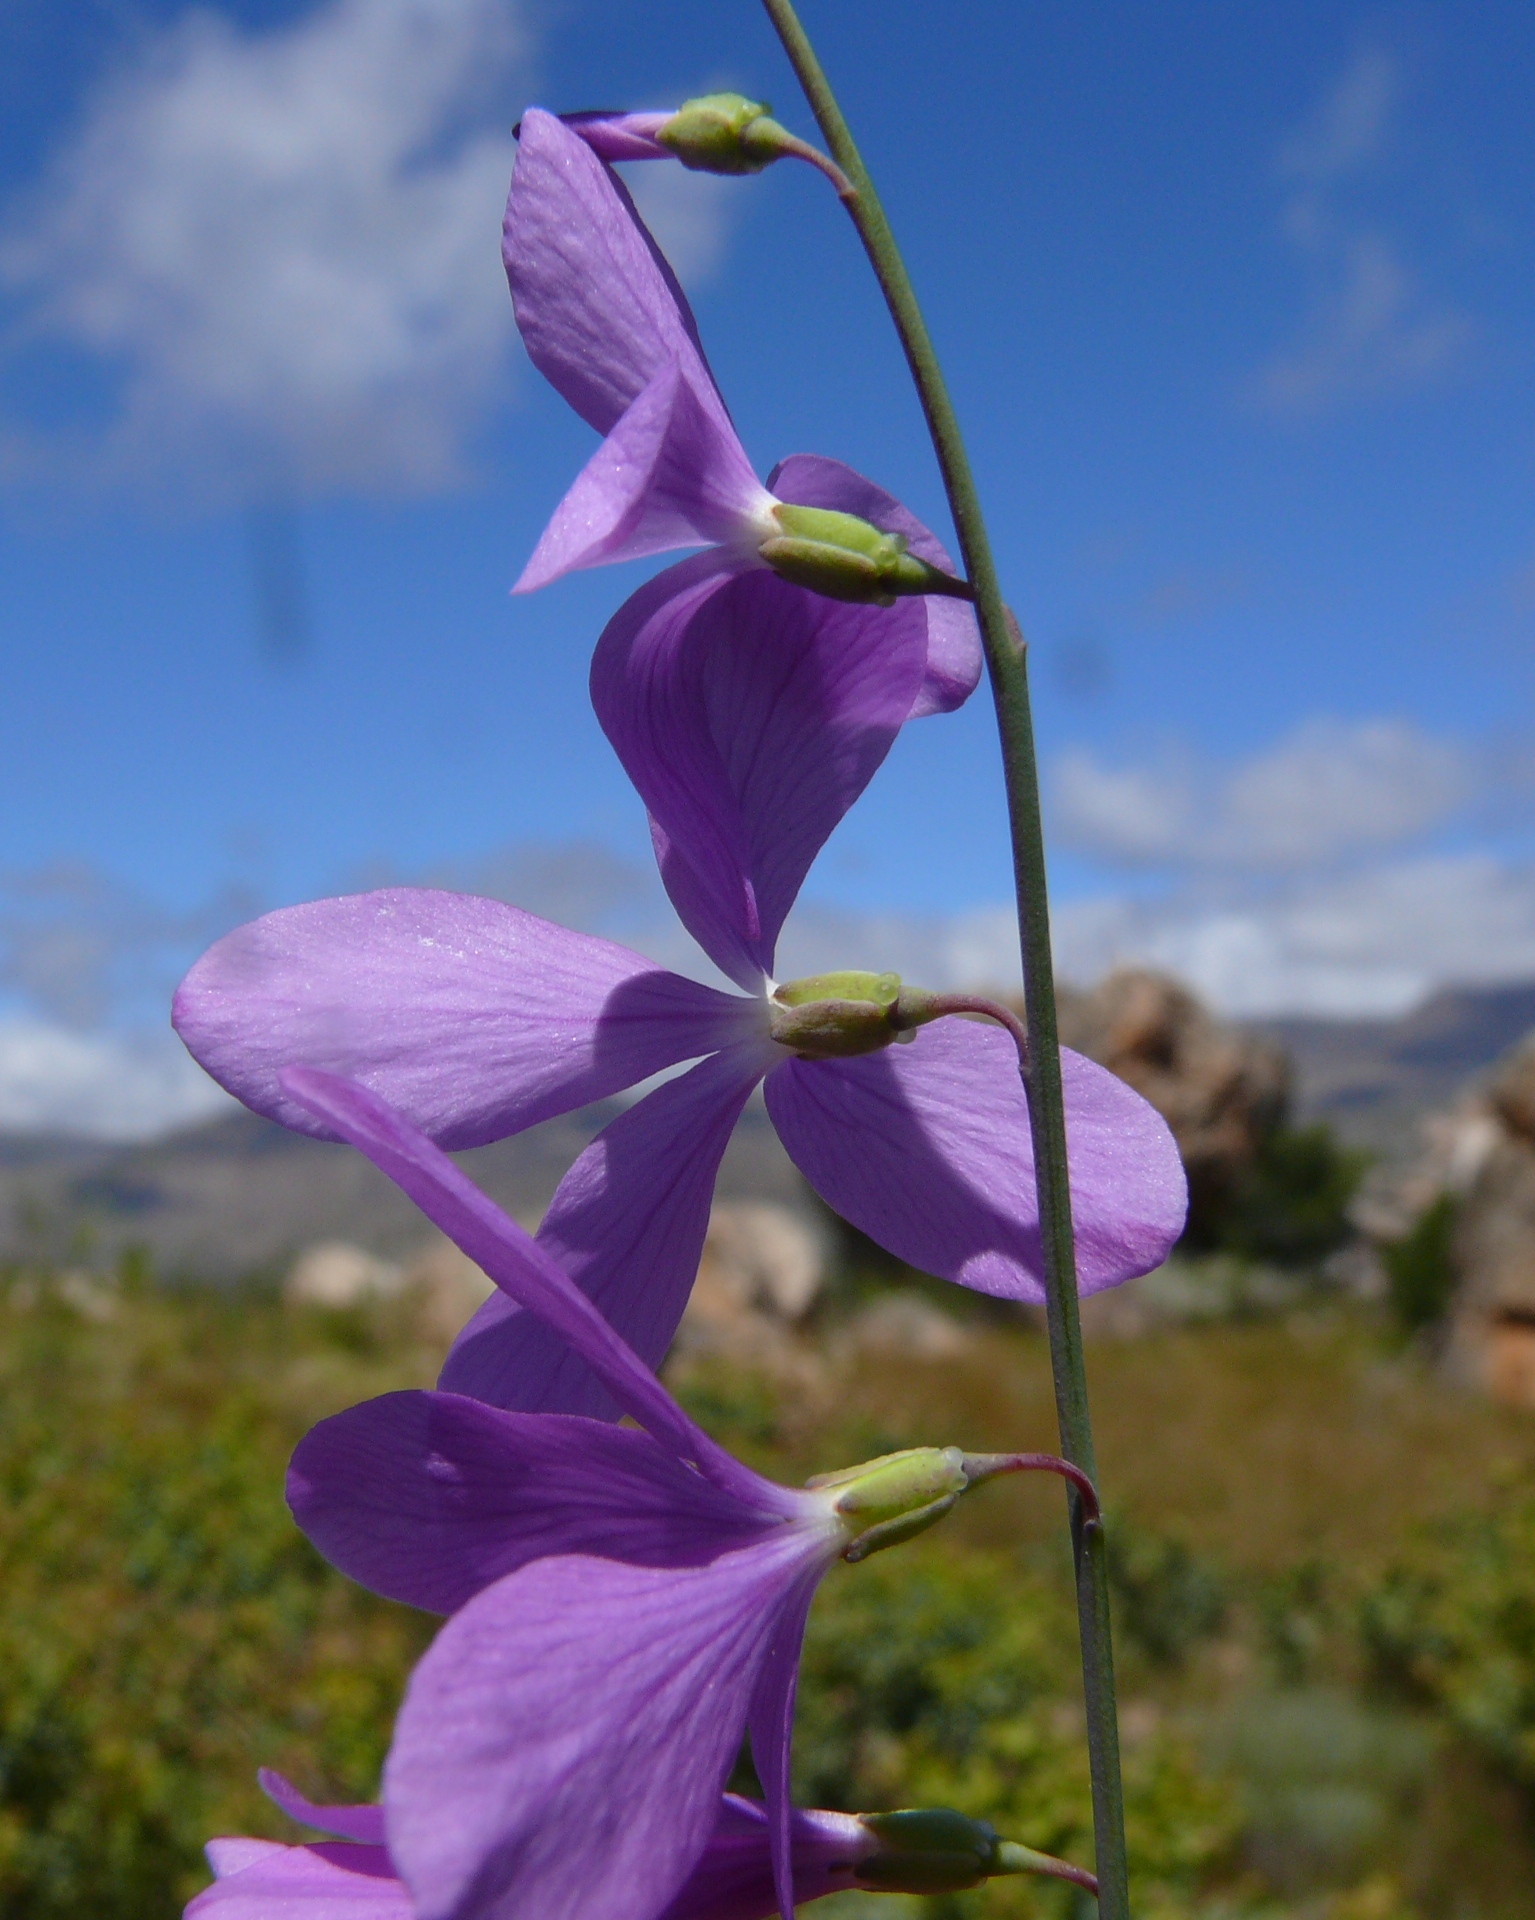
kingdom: Plantae
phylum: Tracheophyta
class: Magnoliopsida
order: Brassicales
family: Brassicaceae
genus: Heliophila
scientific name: Heliophila juncea
